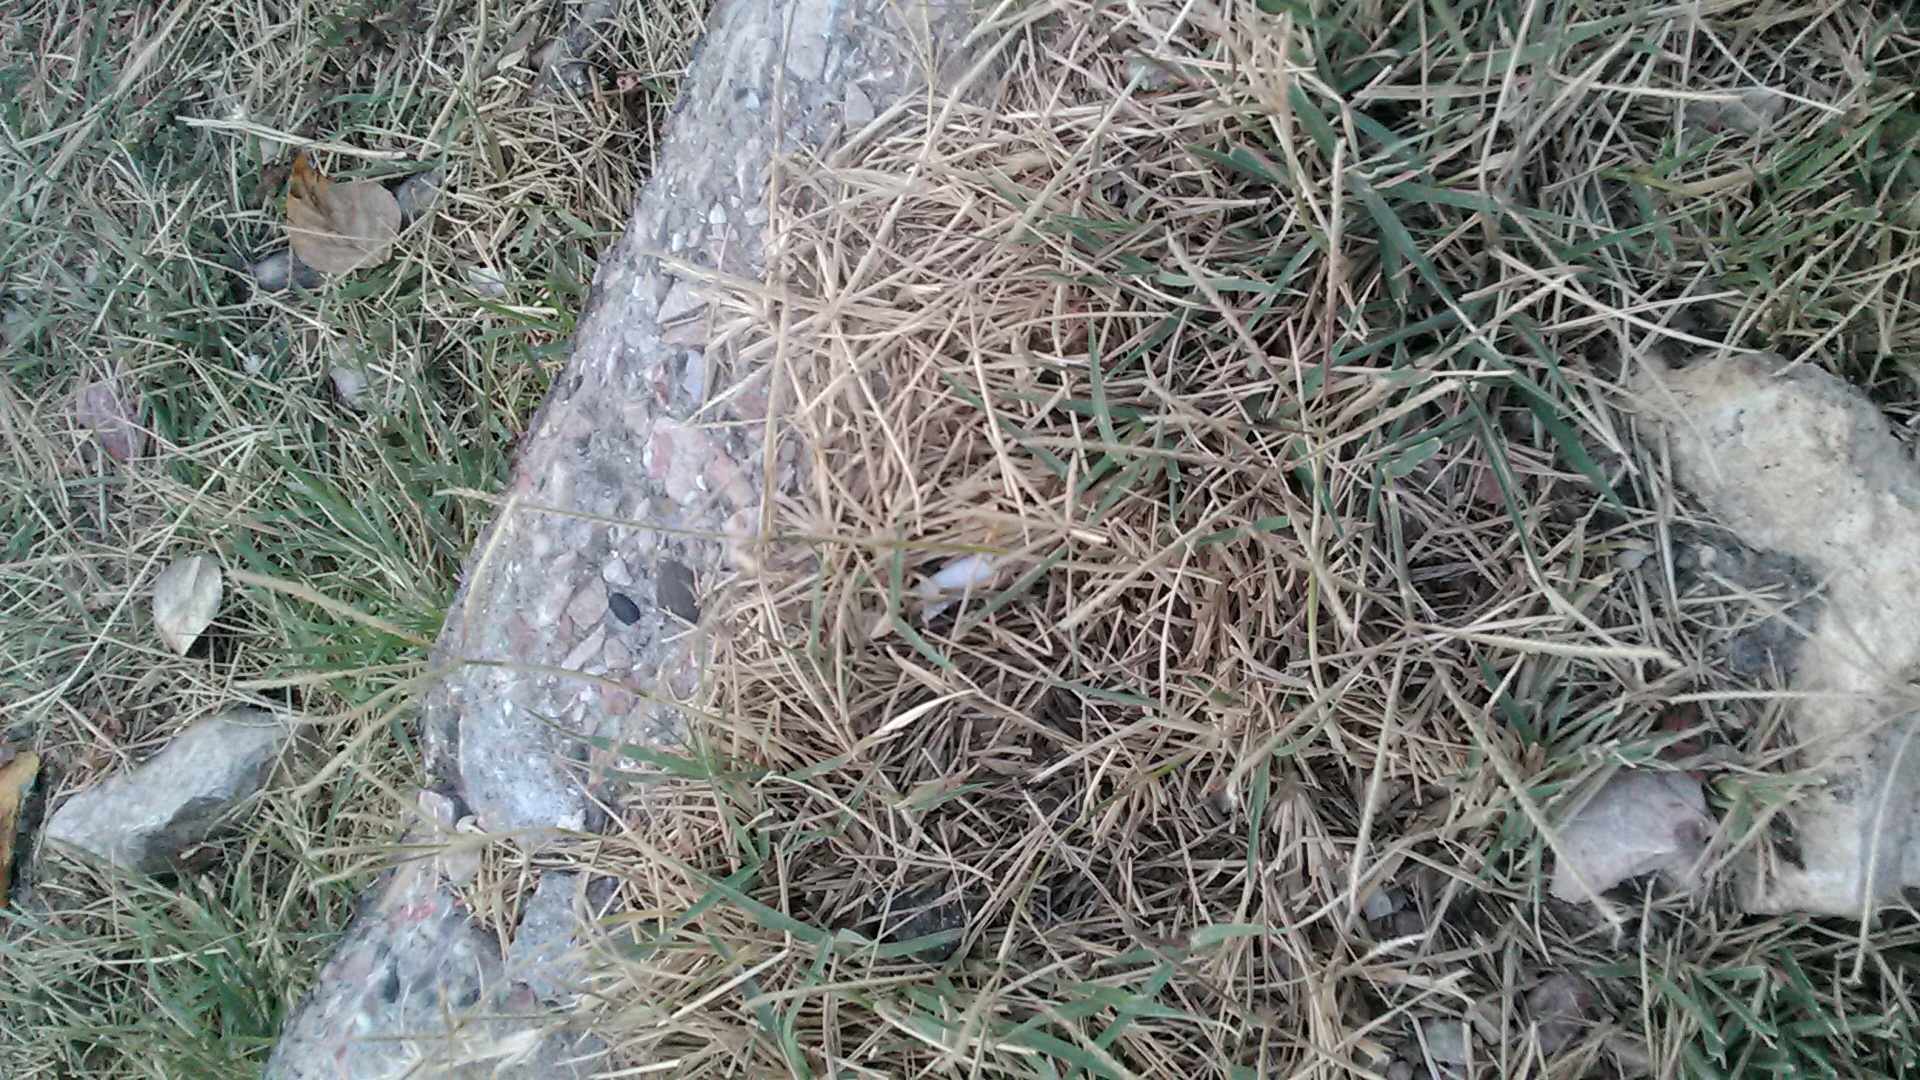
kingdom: Plantae
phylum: Tracheophyta
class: Liliopsida
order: Poales
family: Poaceae
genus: Cynodon
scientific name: Cynodon dactylon
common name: Bermuda grass
